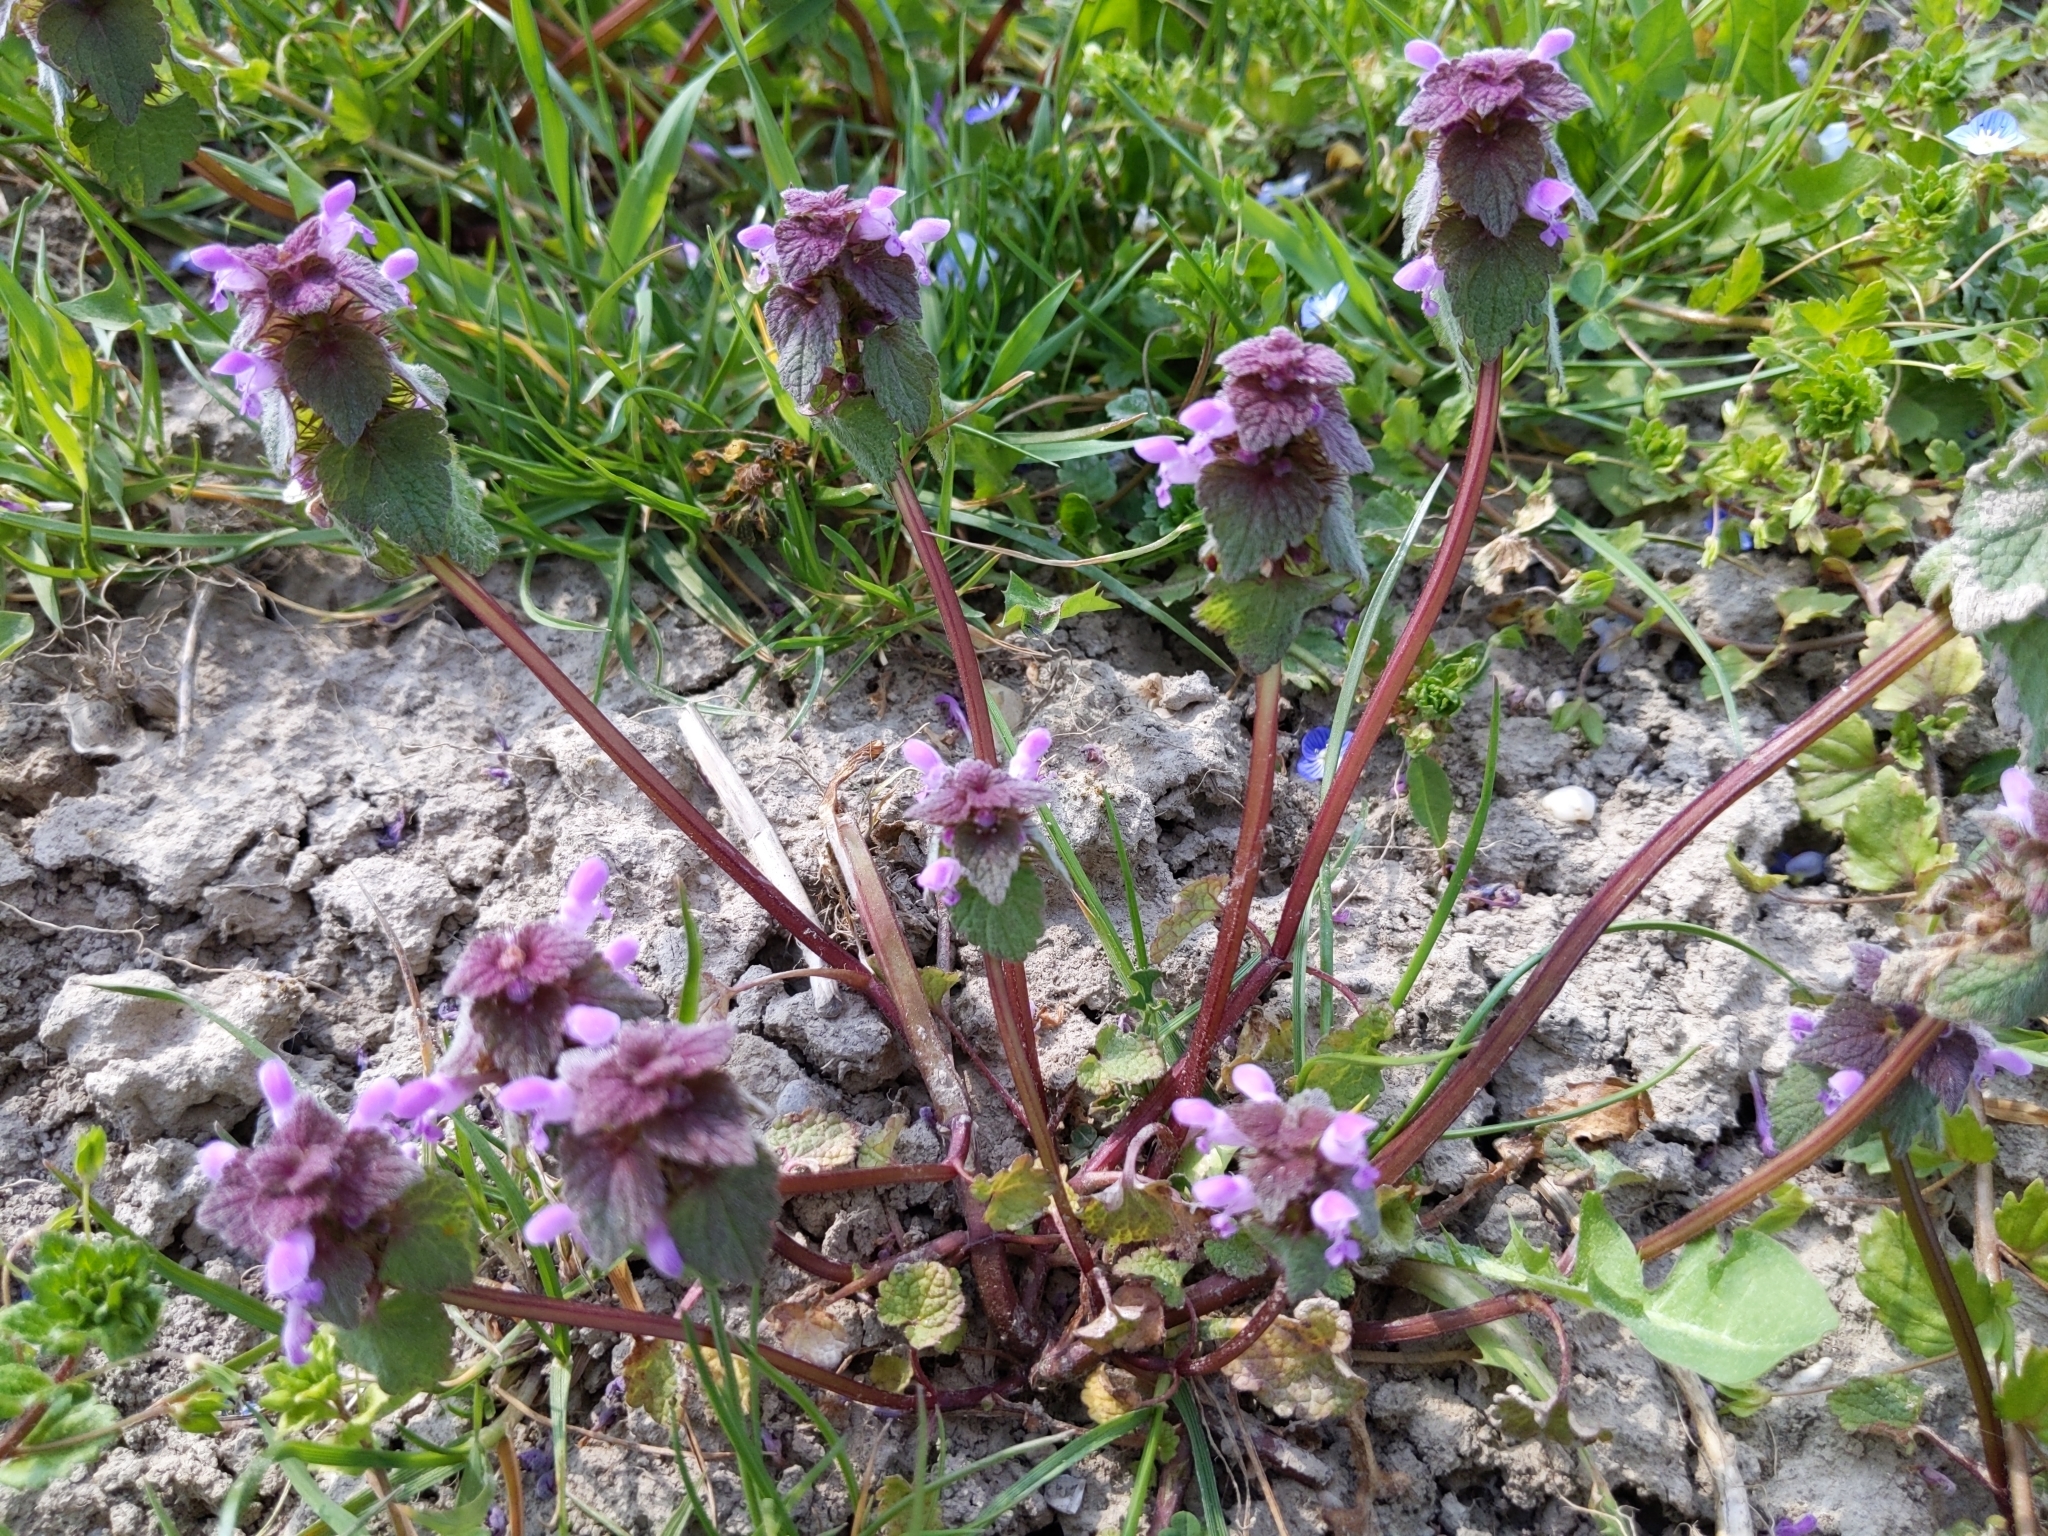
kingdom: Plantae
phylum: Tracheophyta
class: Magnoliopsida
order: Lamiales
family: Lamiaceae
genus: Lamium
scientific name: Lamium purpureum
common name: Red dead-nettle
